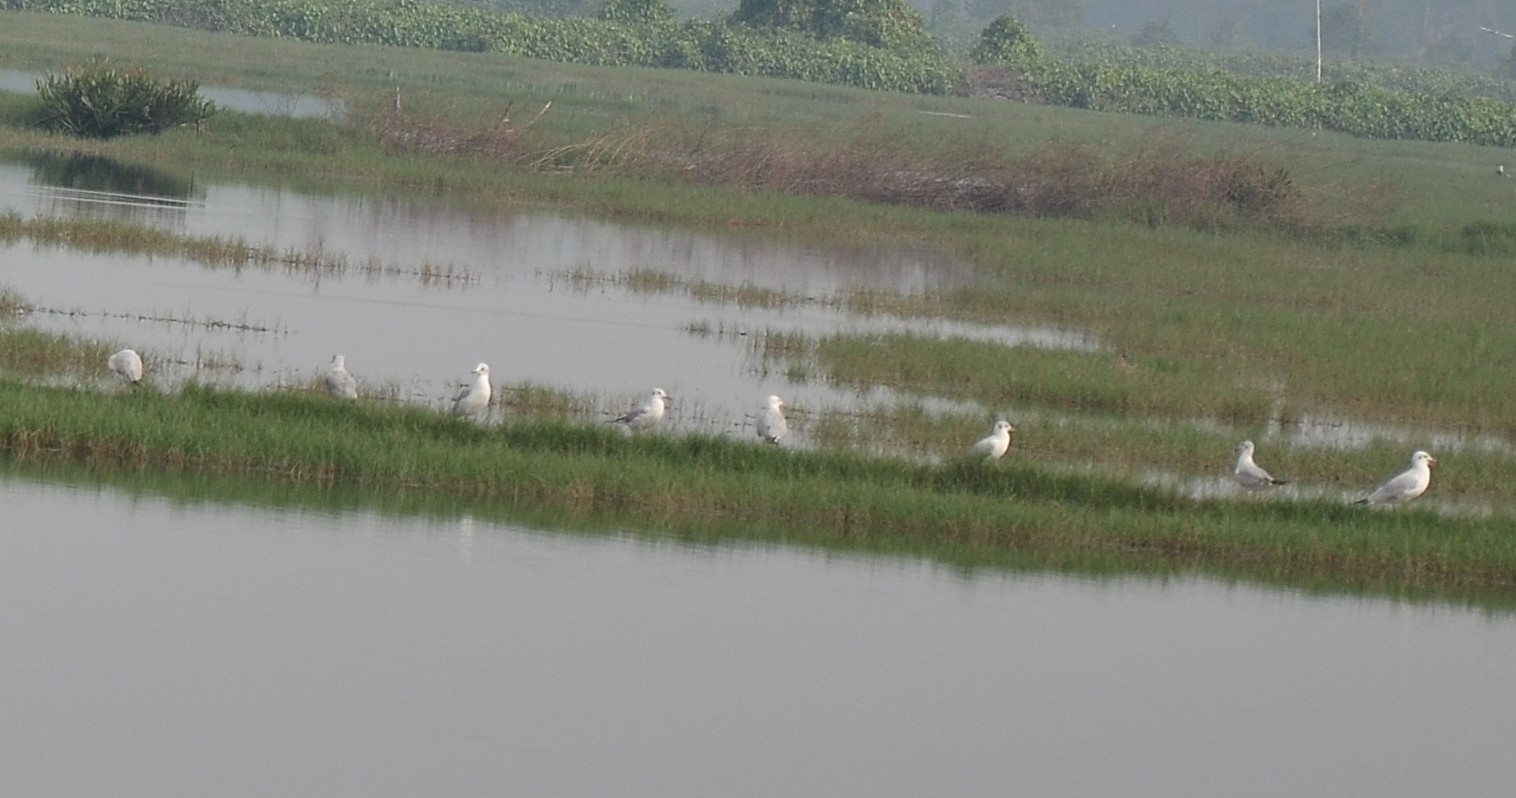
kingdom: Animalia
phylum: Chordata
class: Aves
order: Charadriiformes
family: Laridae
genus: Chroicocephalus
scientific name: Chroicocephalus brunnicephalus
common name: Brown-headed gull
